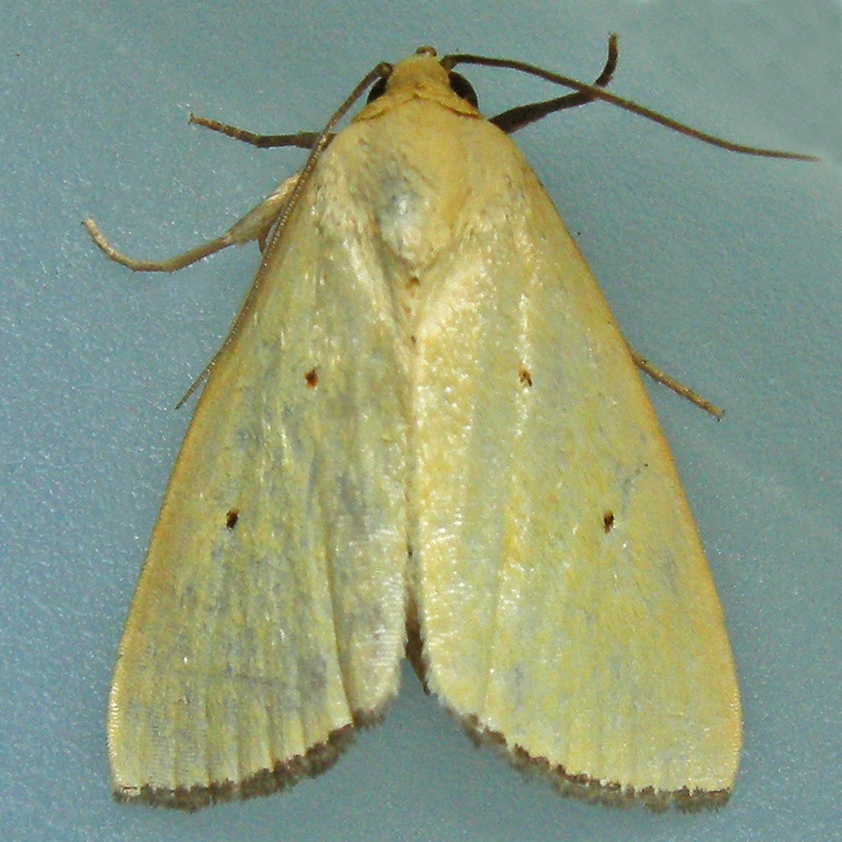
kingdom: Animalia
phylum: Arthropoda
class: Insecta
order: Lepidoptera
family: Noctuidae
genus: Marimatha
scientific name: Marimatha nigrofimbria
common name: Black-bordered lemon moth
